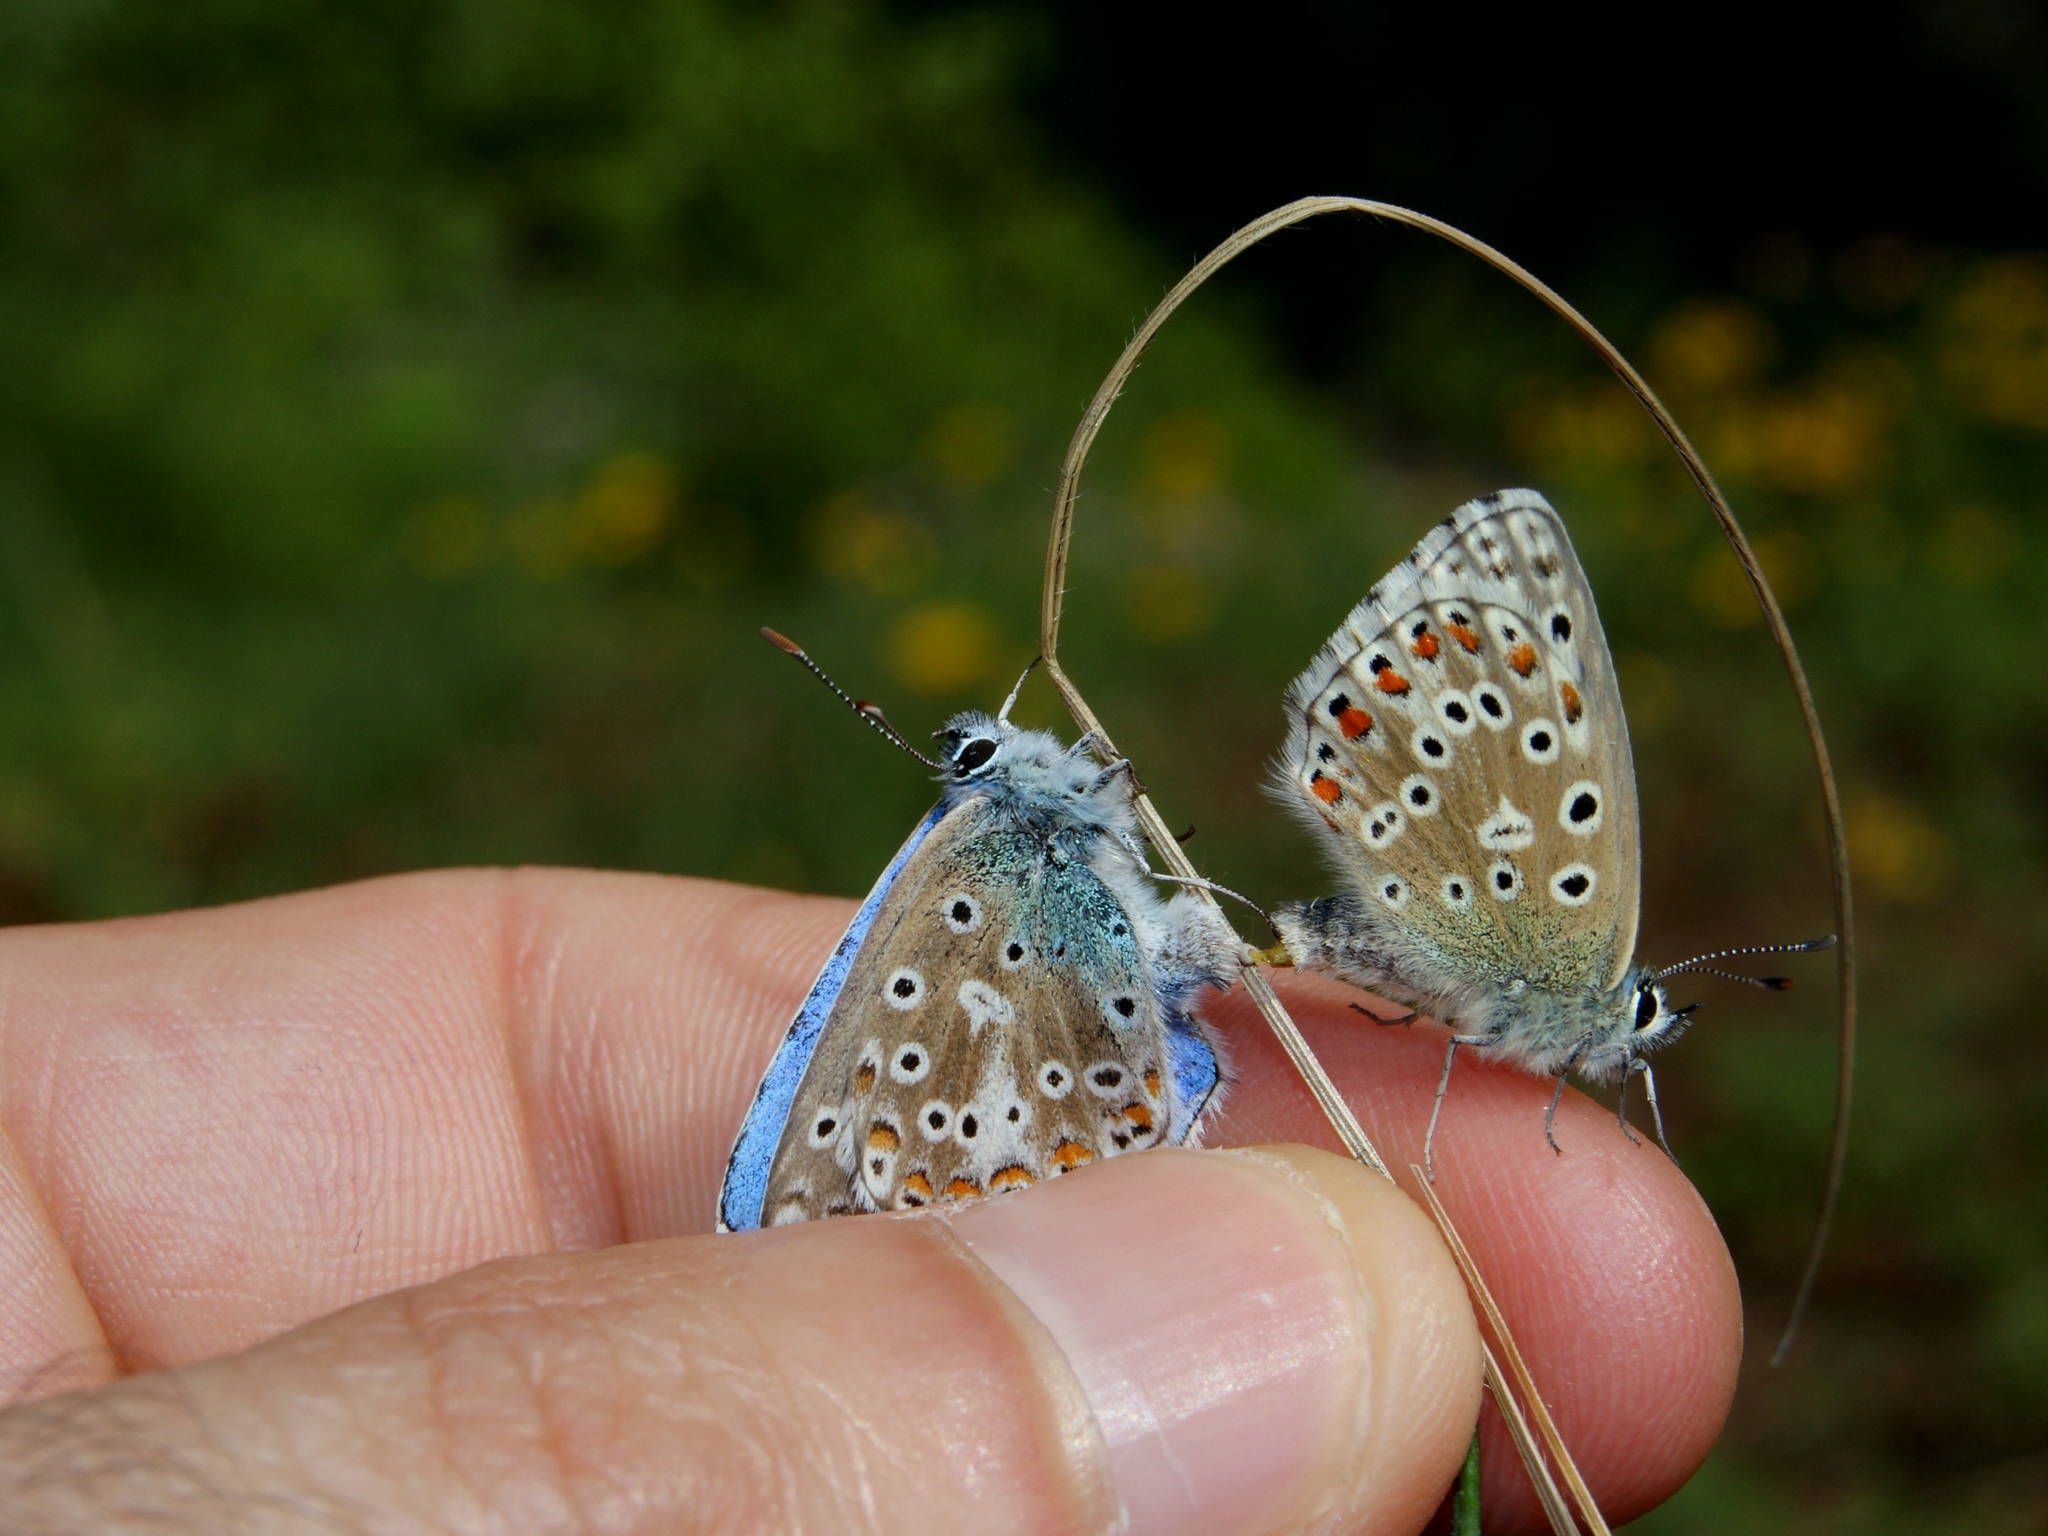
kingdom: Animalia
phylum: Arthropoda
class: Insecta
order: Lepidoptera
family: Lycaenidae
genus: Lysandra
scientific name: Lysandra bellargus
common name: Adonis blue
